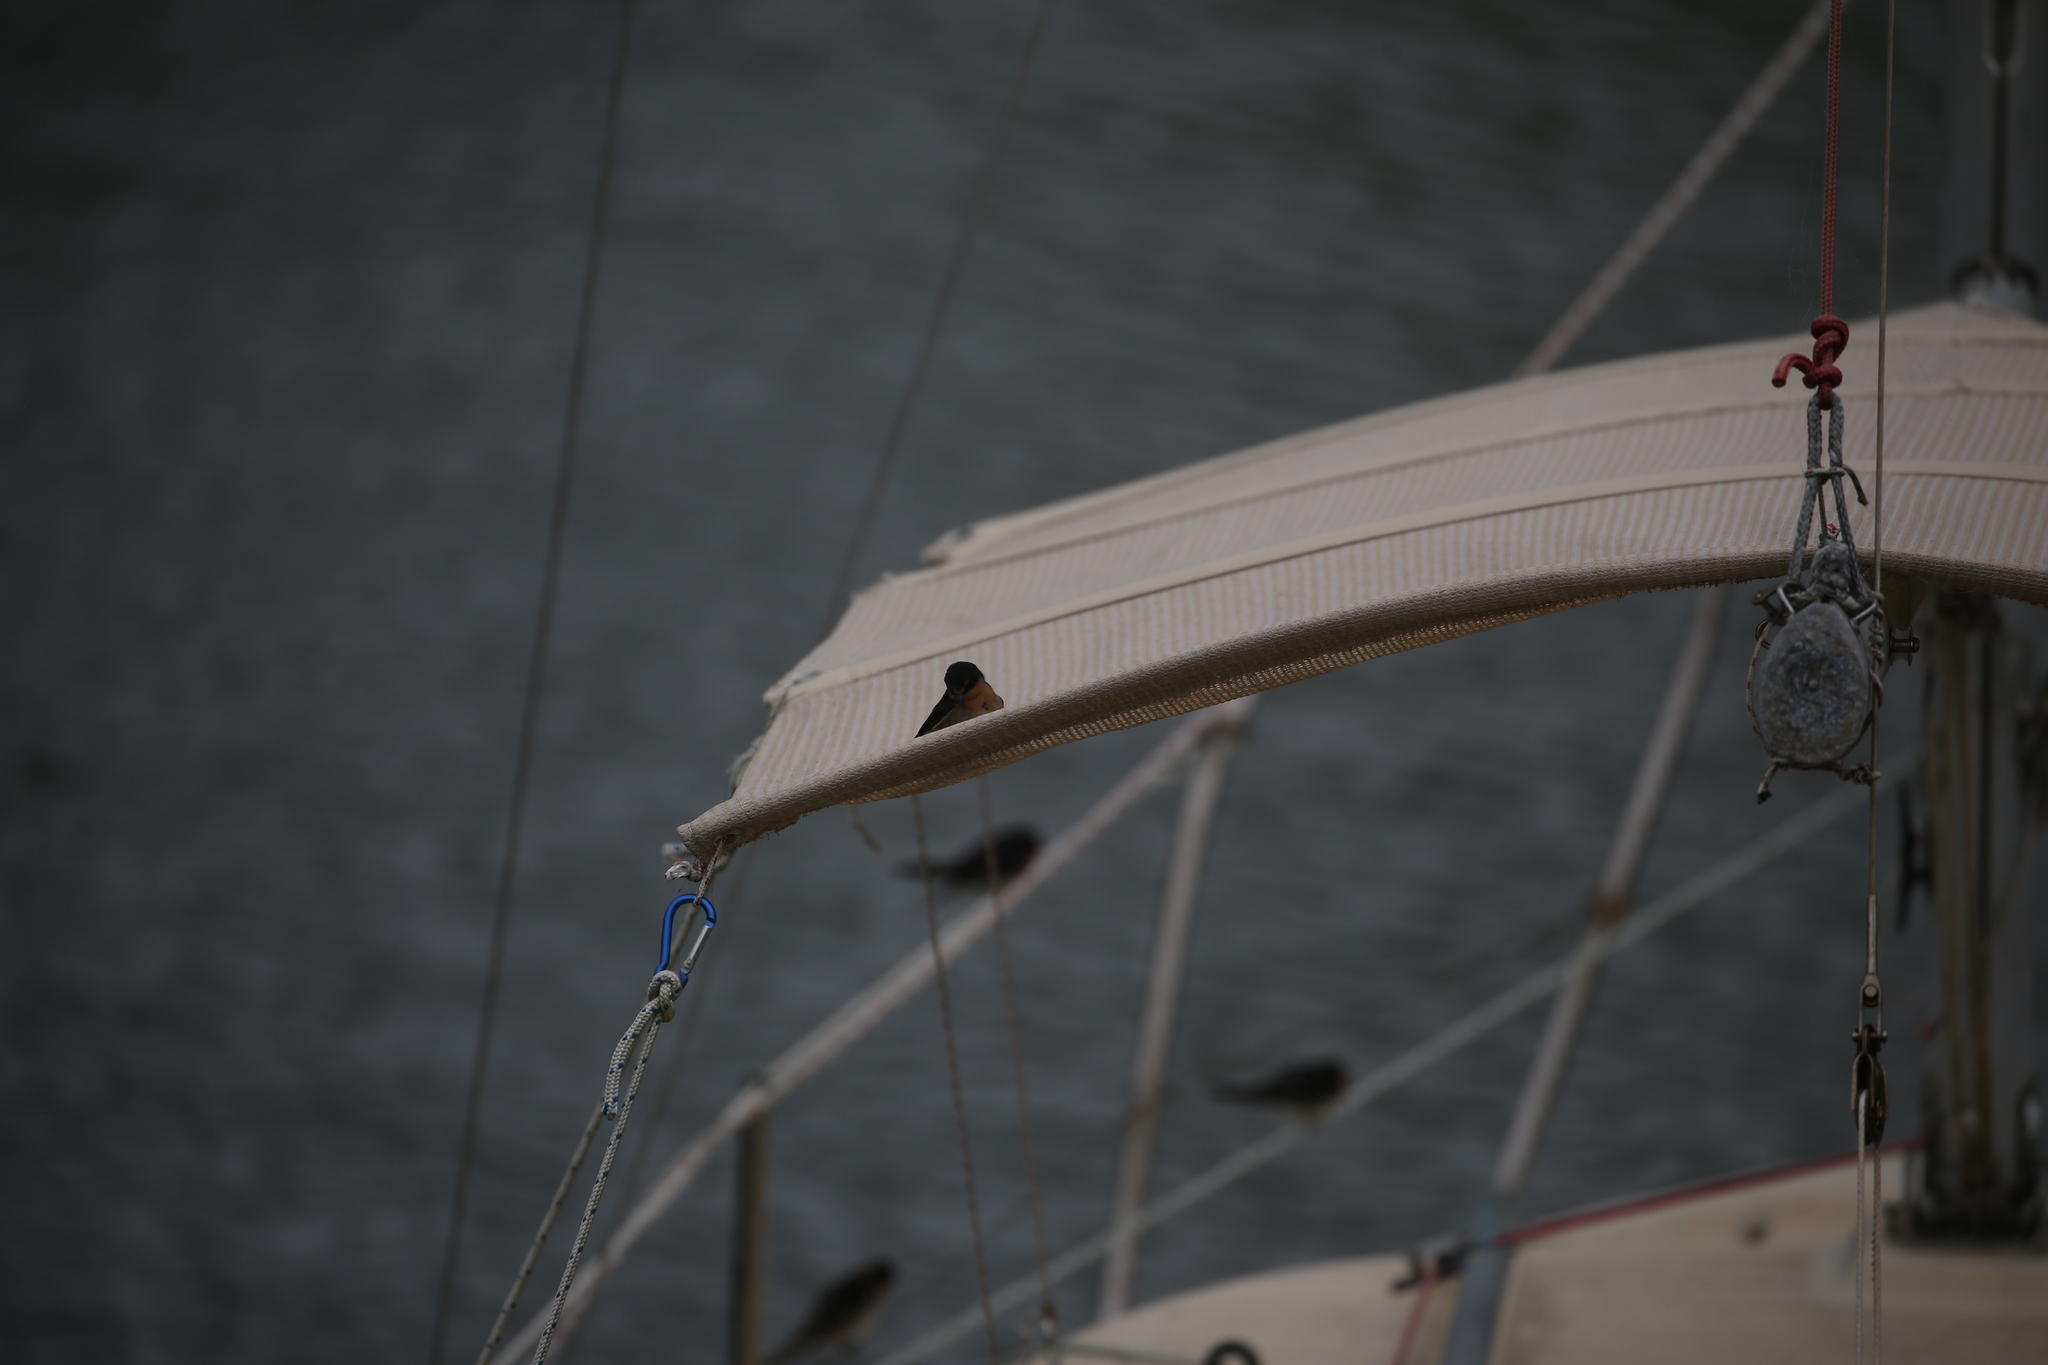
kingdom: Animalia
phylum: Chordata
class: Aves
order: Passeriformes
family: Hirundinidae
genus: Hirundo
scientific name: Hirundo neoxena
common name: Welcome swallow
